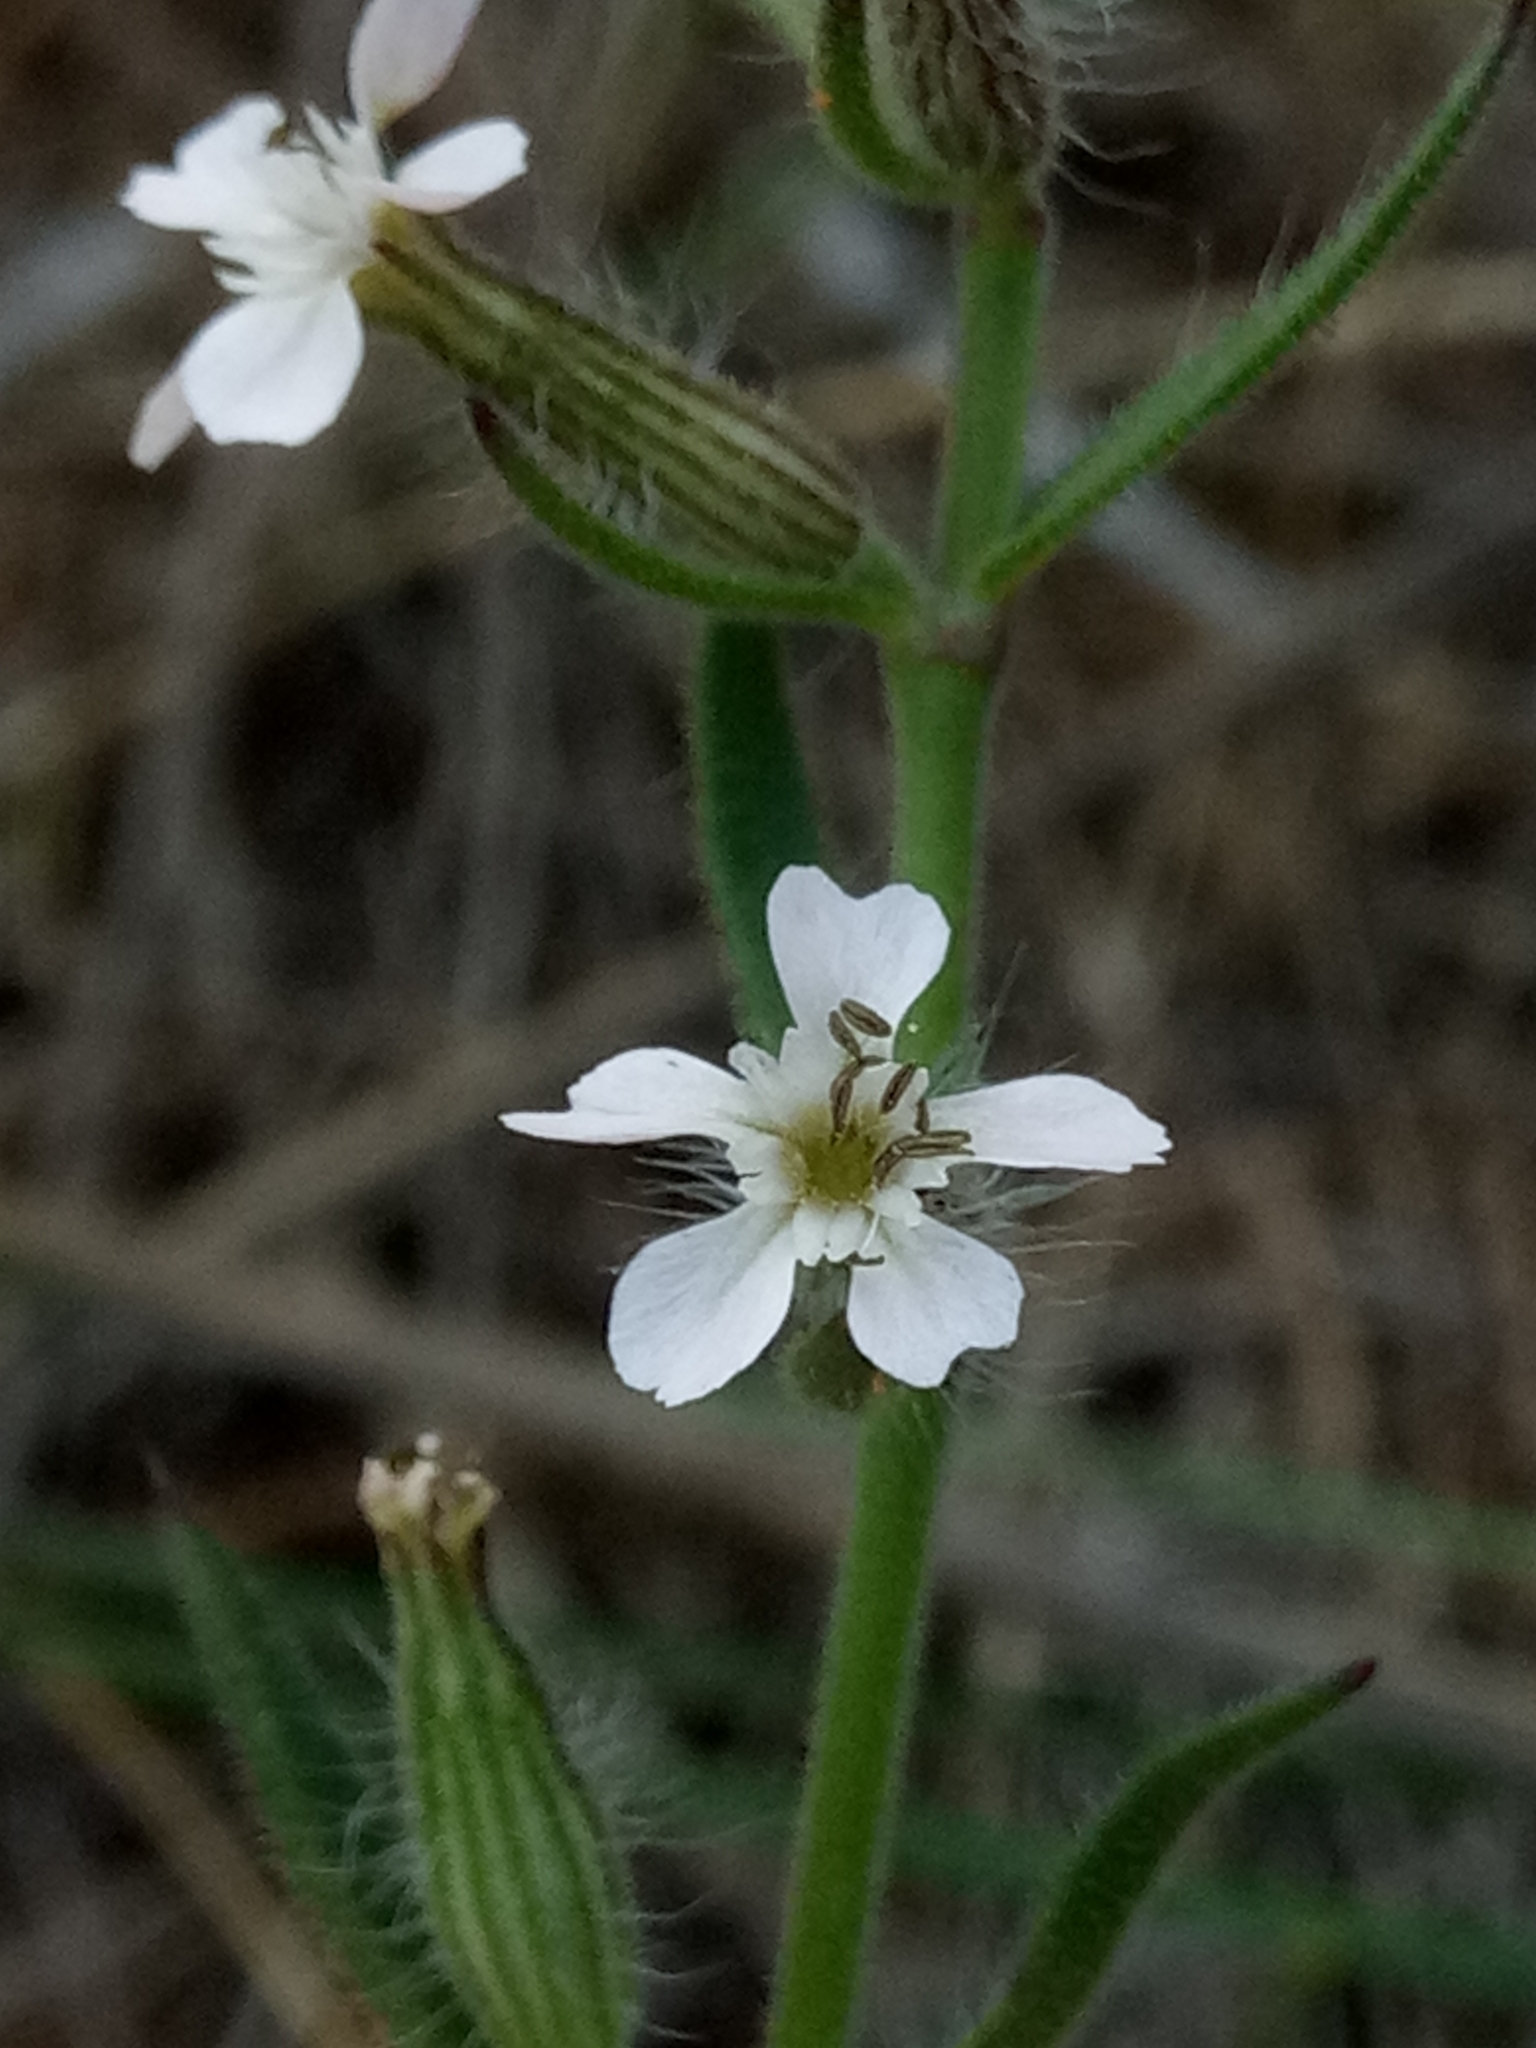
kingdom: Plantae
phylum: Tracheophyta
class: Magnoliopsida
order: Caryophyllales
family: Caryophyllaceae
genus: Silene
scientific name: Silene gallica
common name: Small-flowered catchfly
